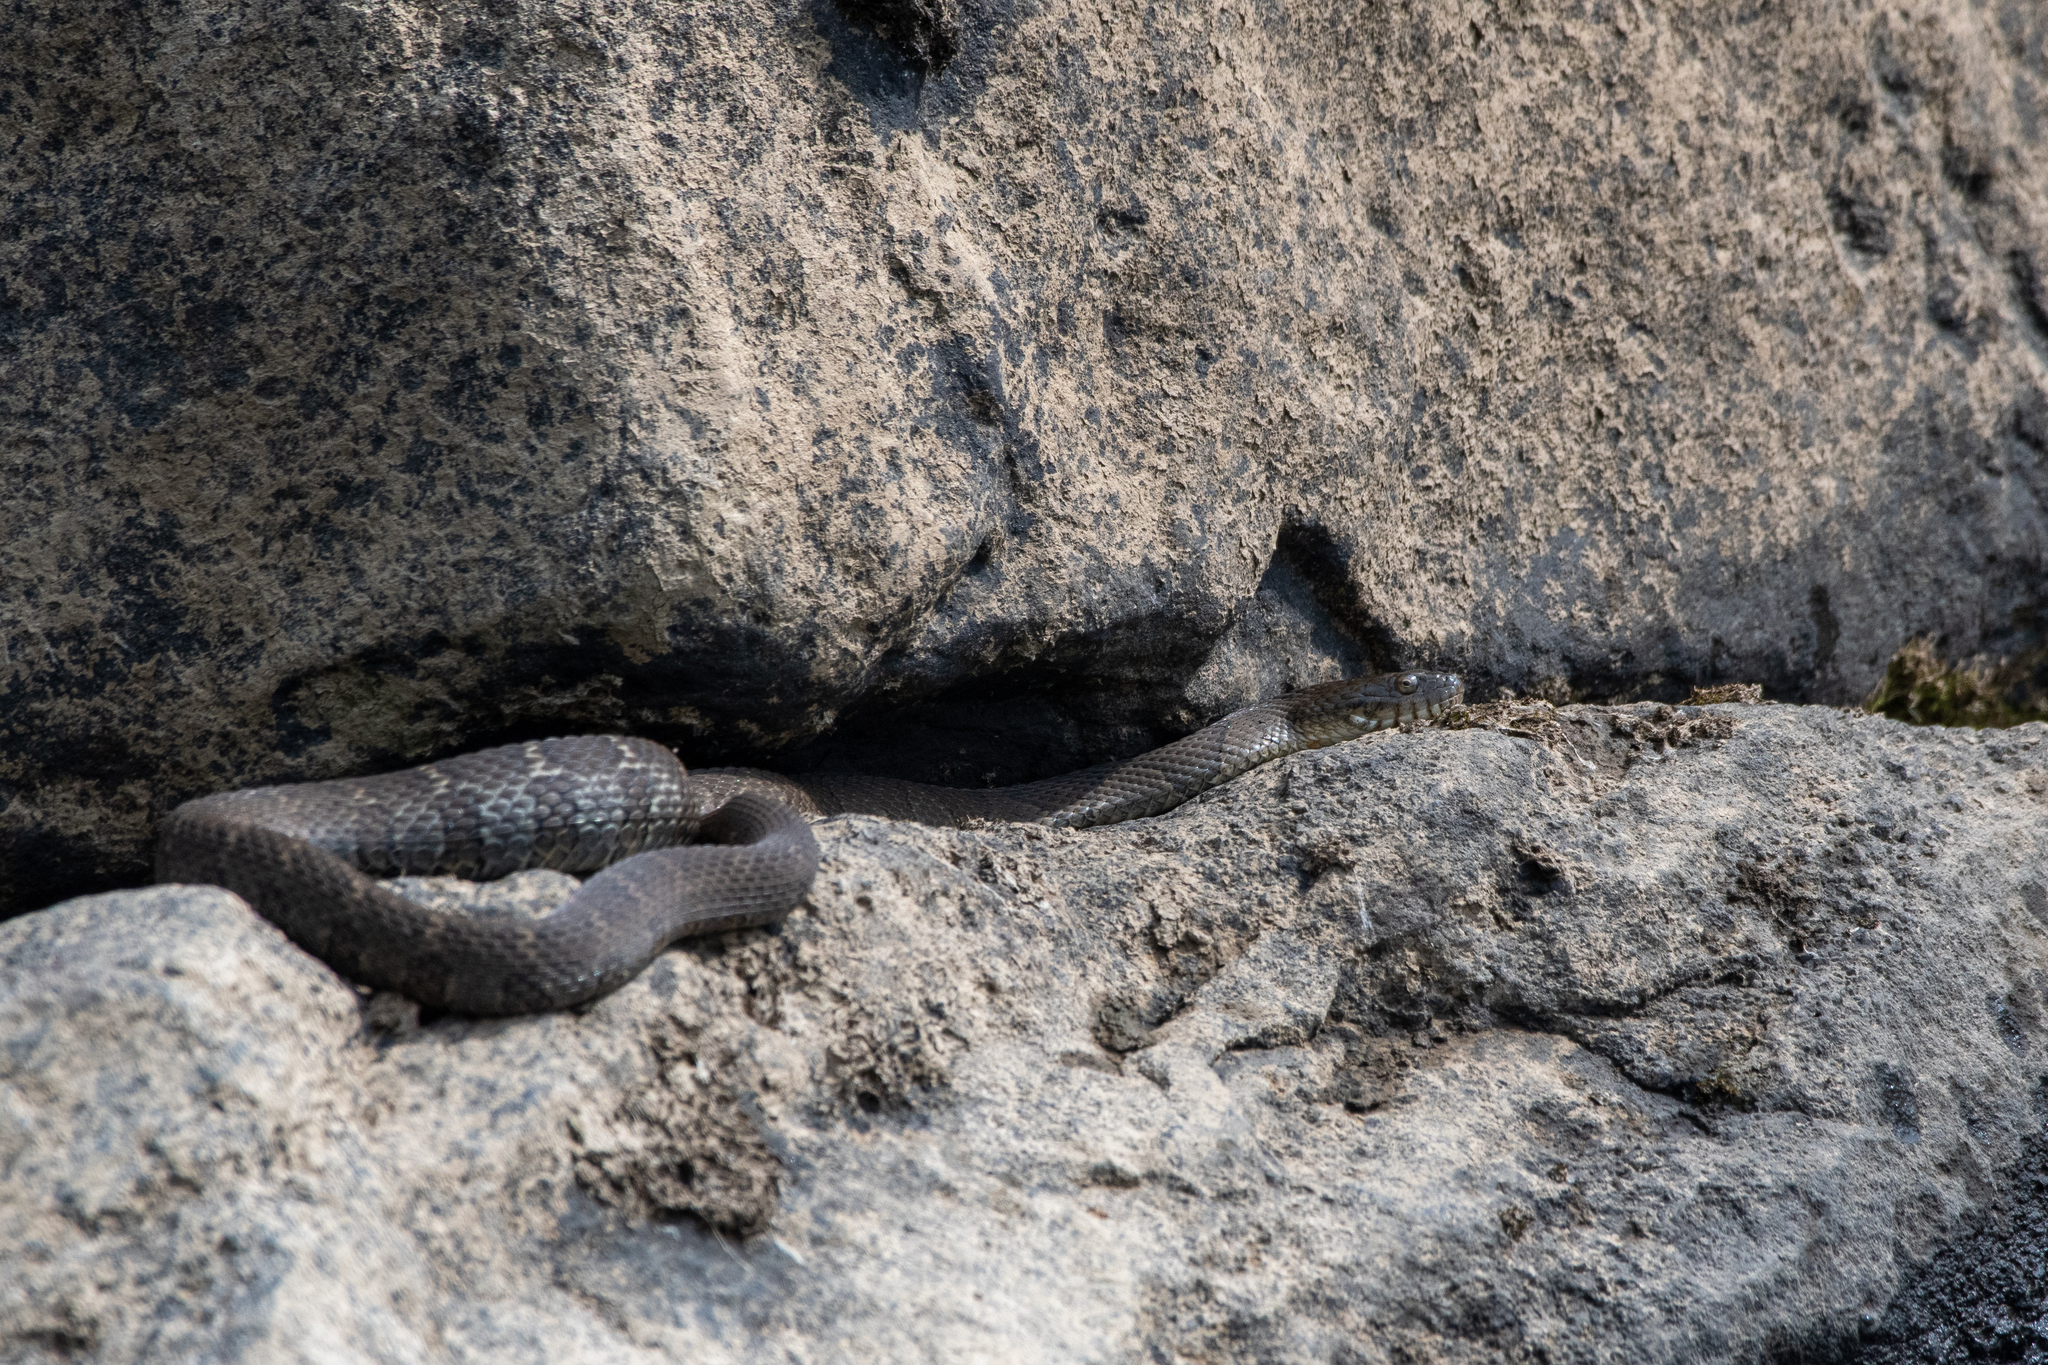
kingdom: Animalia
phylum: Chordata
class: Squamata
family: Colubridae
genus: Nerodia
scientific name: Nerodia sipedon
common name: Northern water snake
